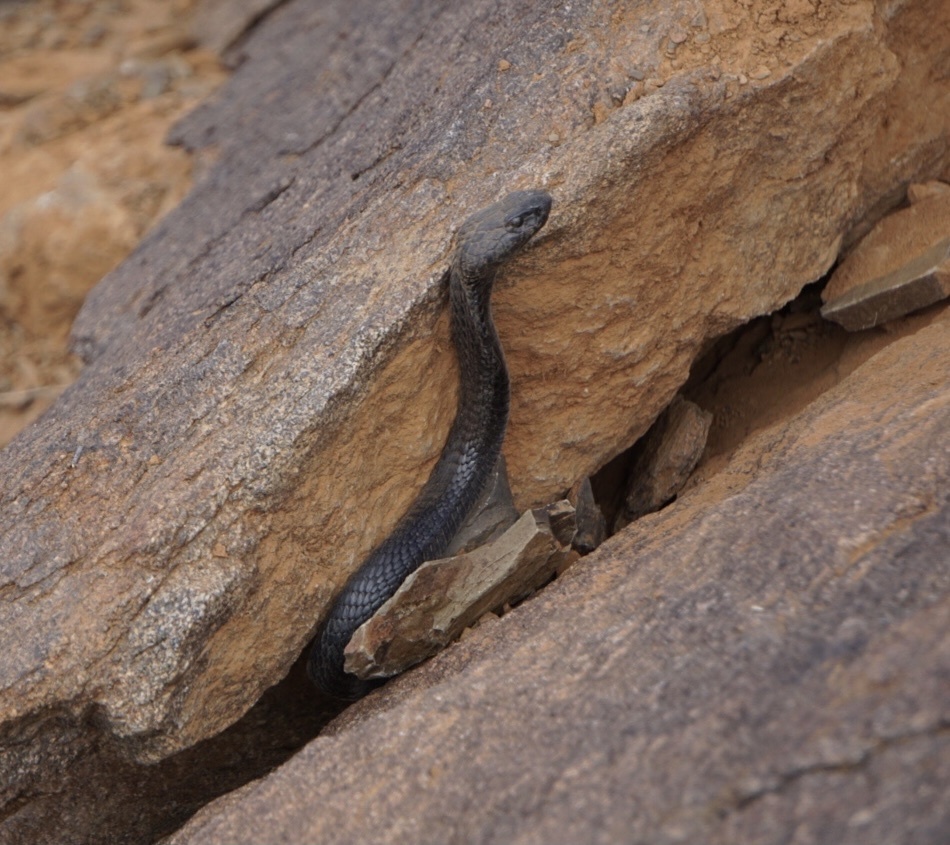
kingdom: Animalia
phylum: Chordata
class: Squamata
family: Elapidae
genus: Naja
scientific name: Naja nigricincta
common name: Black spitting cobra
